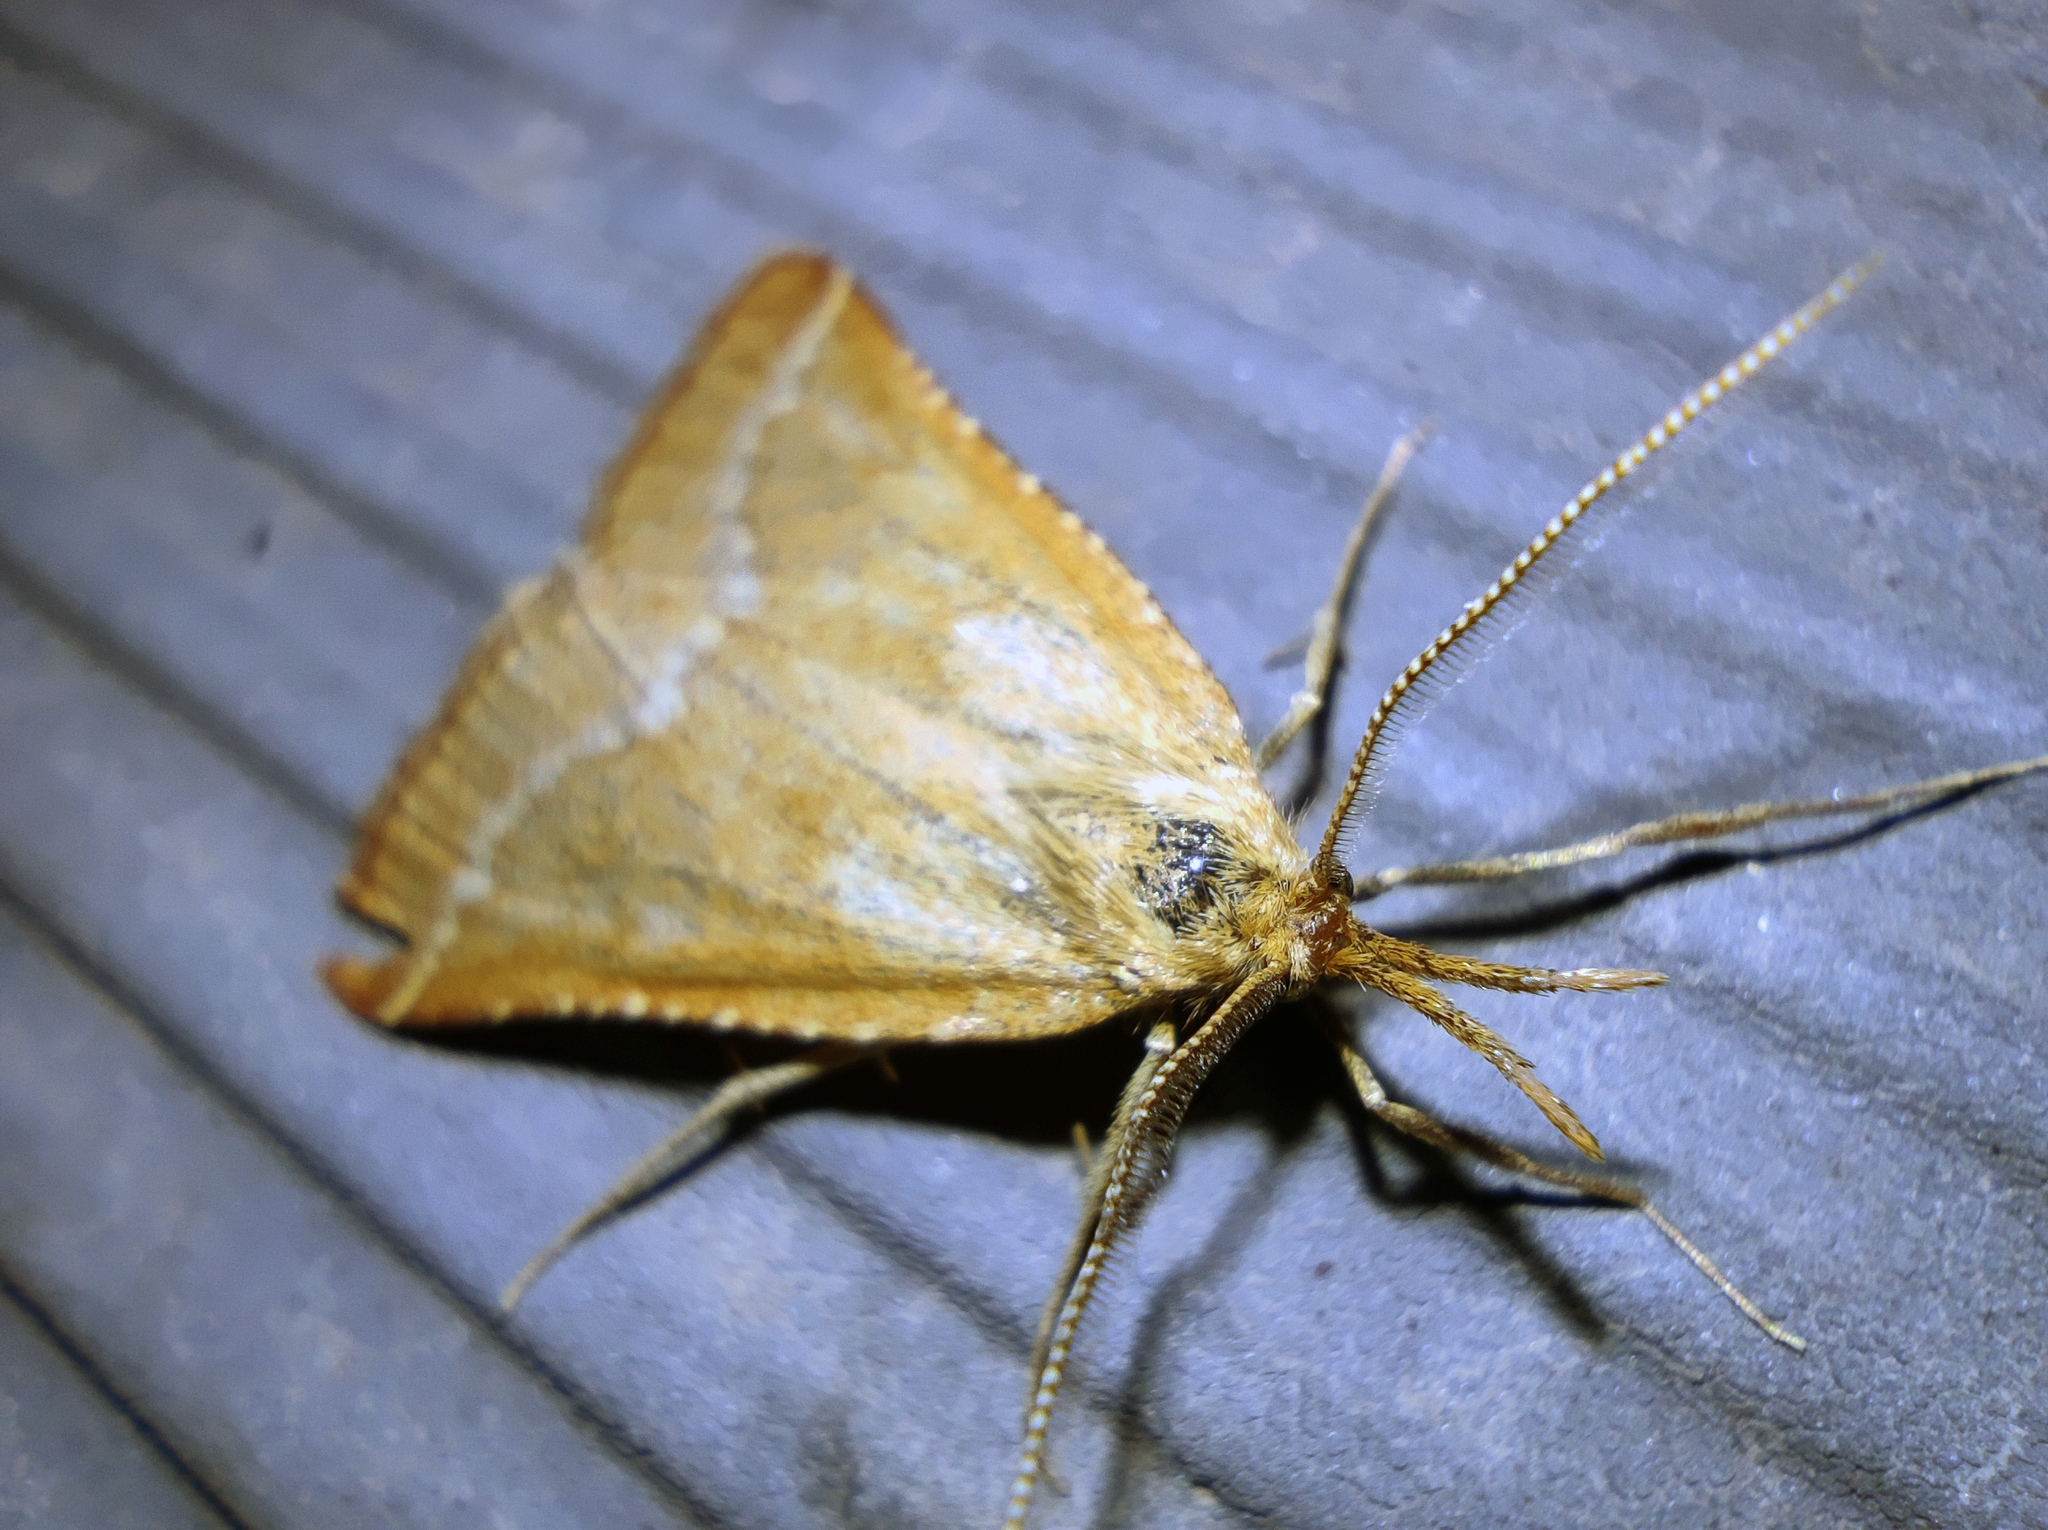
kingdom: Animalia
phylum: Arthropoda
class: Insecta
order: Lepidoptera
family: Pyralidae
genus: Synaphe
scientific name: Synaphe antennalis
